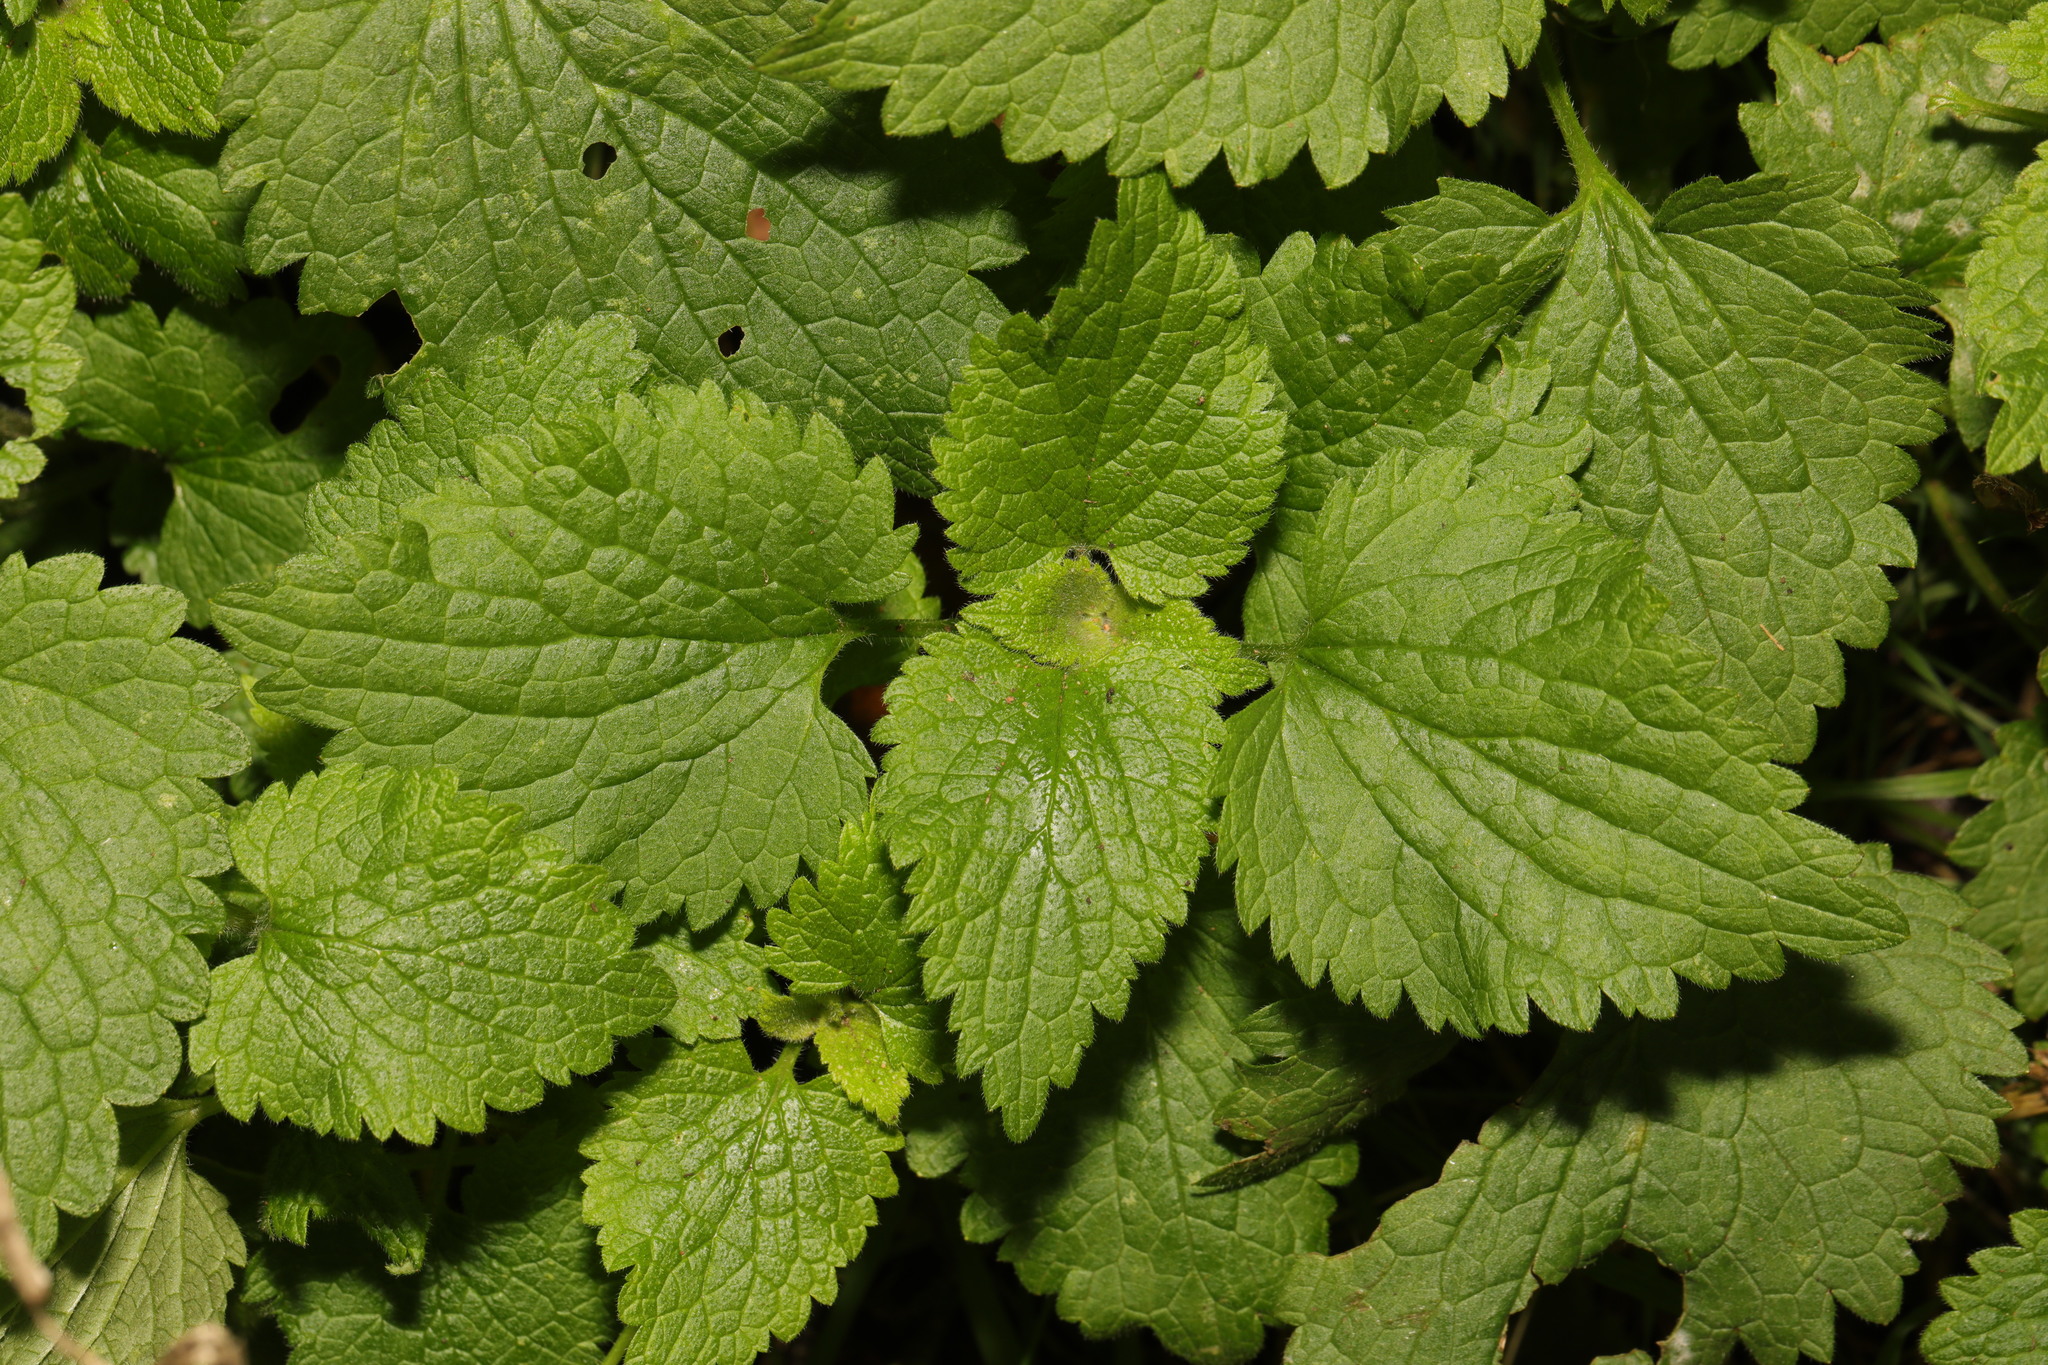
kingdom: Plantae
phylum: Tracheophyta
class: Magnoliopsida
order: Lamiales
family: Lamiaceae
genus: Lamium
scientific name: Lamium album
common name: White dead-nettle
